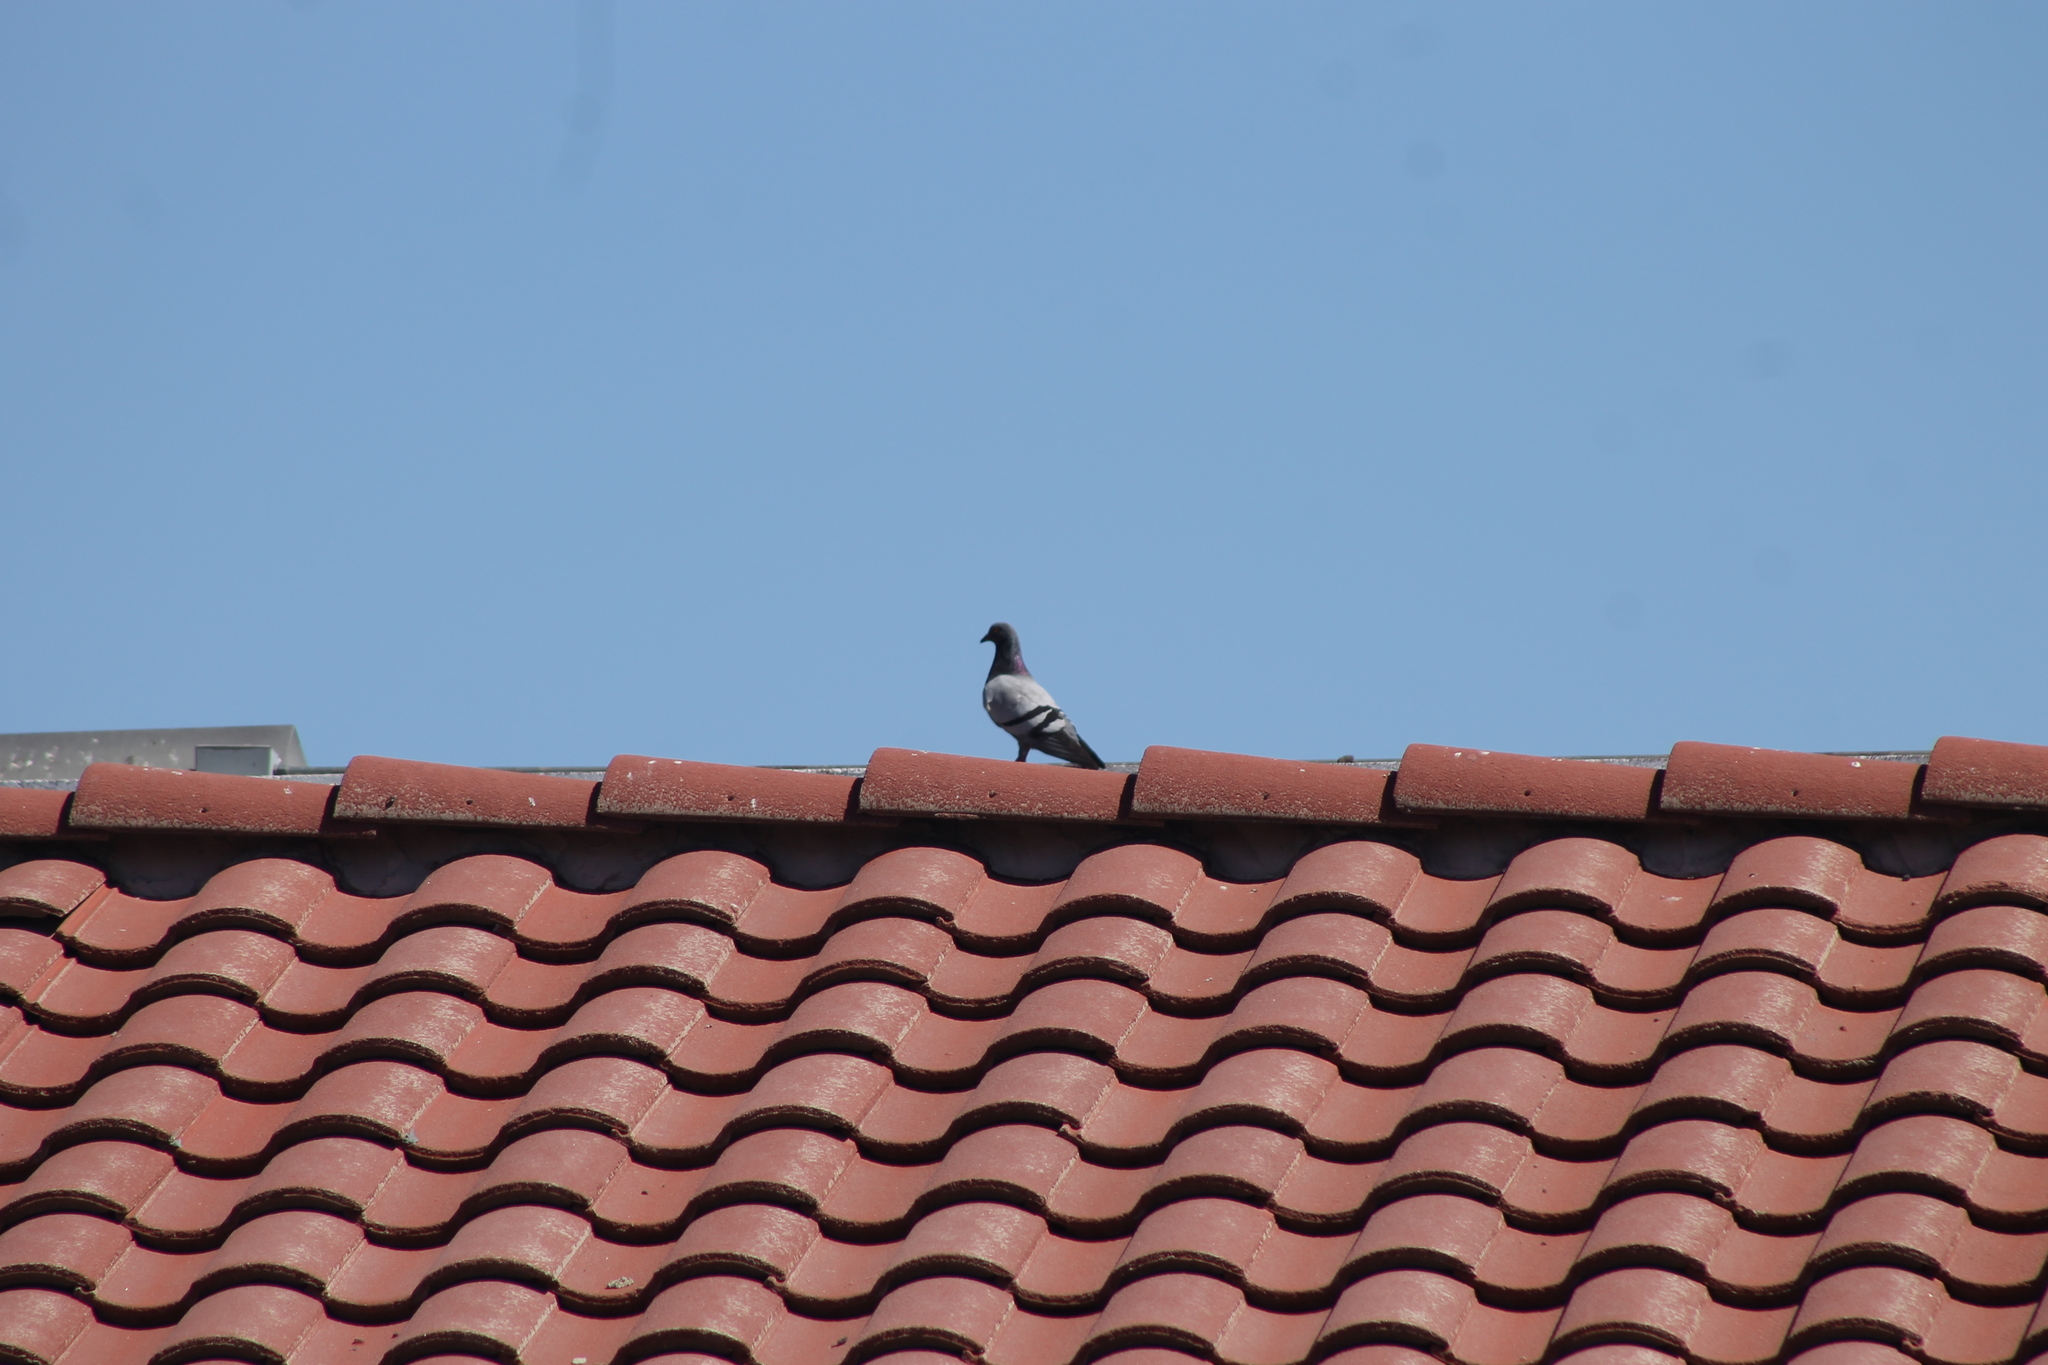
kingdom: Animalia
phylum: Chordata
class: Aves
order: Columbiformes
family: Columbidae
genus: Columba
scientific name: Columba livia
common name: Rock pigeon
